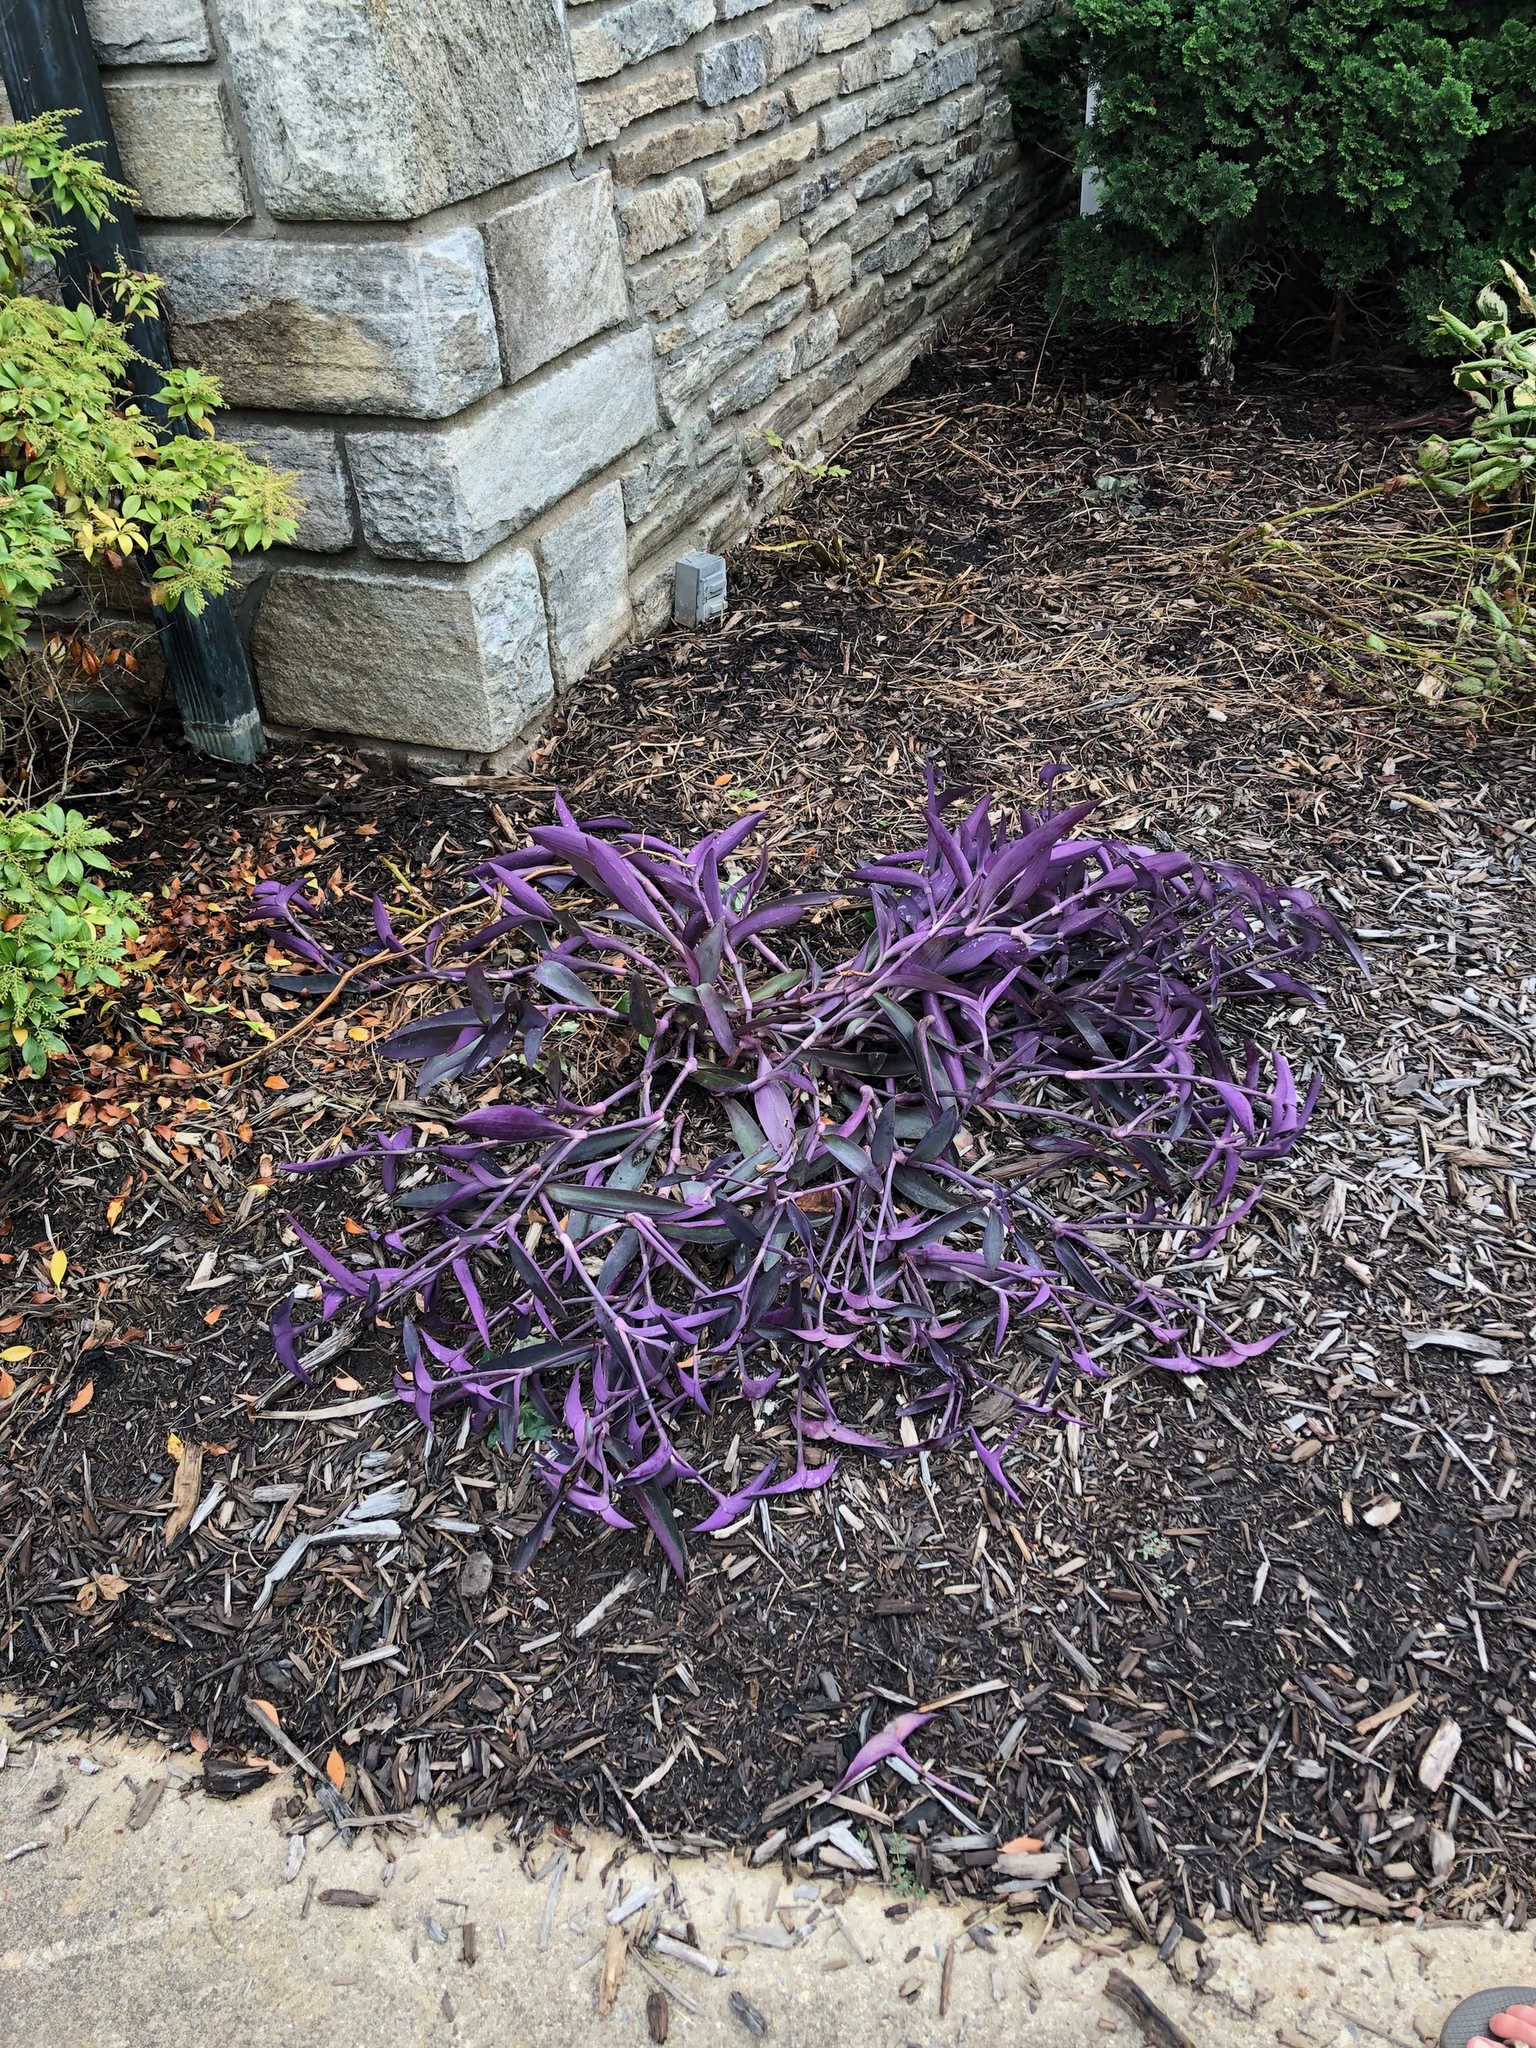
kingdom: Plantae
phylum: Tracheophyta
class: Liliopsida
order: Commelinales
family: Commelinaceae
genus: Tradescantia
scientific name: Tradescantia pallida
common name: Purpleheart
